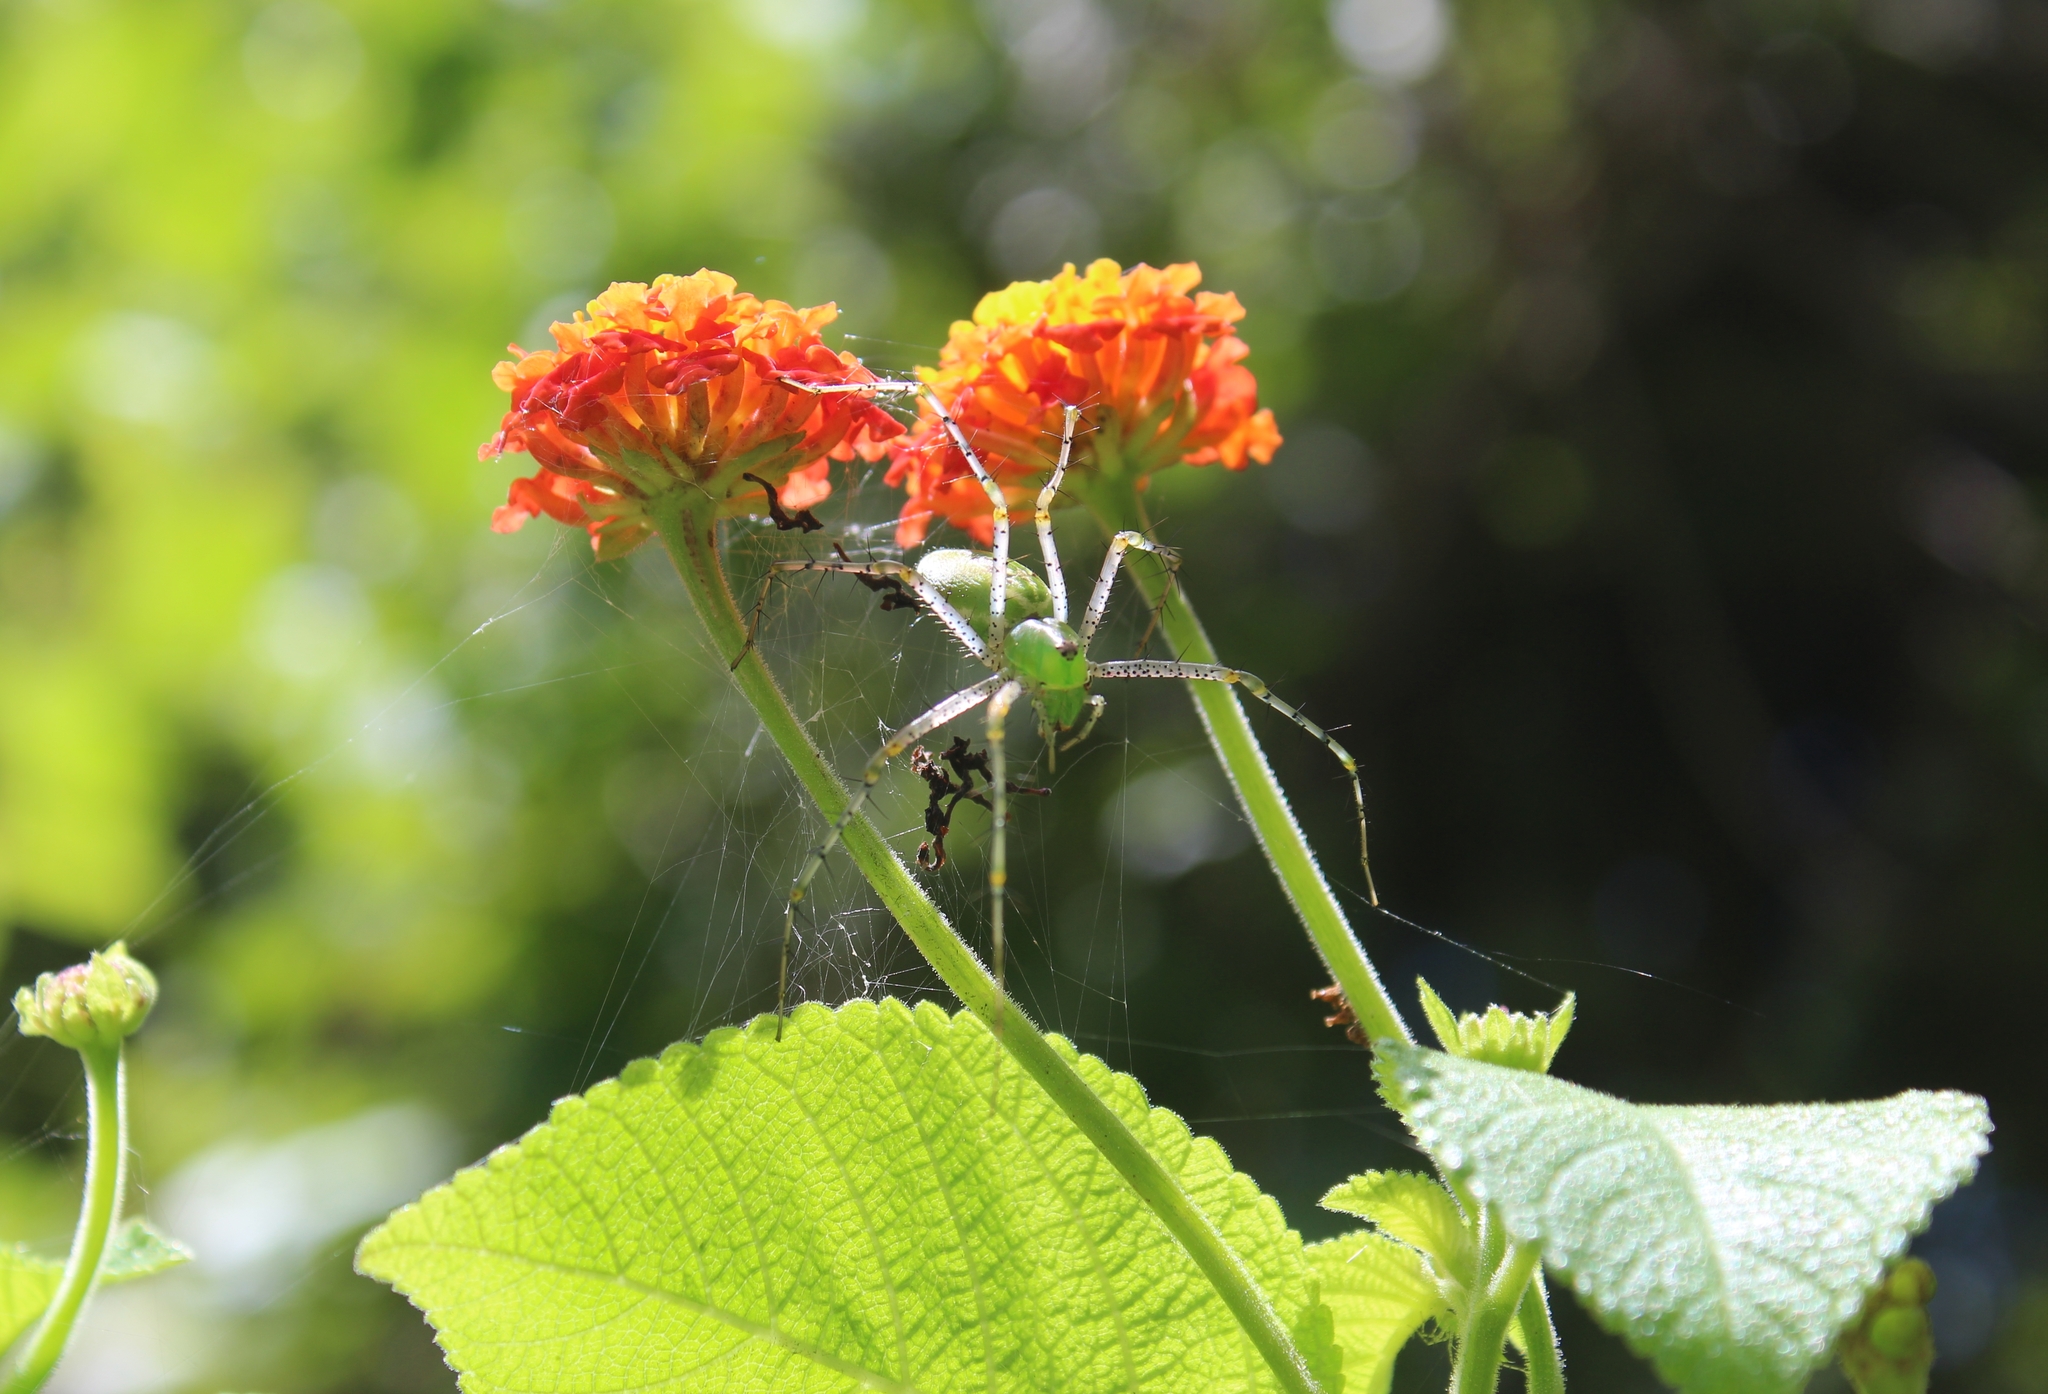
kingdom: Animalia
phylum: Arthropoda
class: Arachnida
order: Araneae
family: Oxyopidae
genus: Peucetia
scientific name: Peucetia viridans
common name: Lynx spiders
